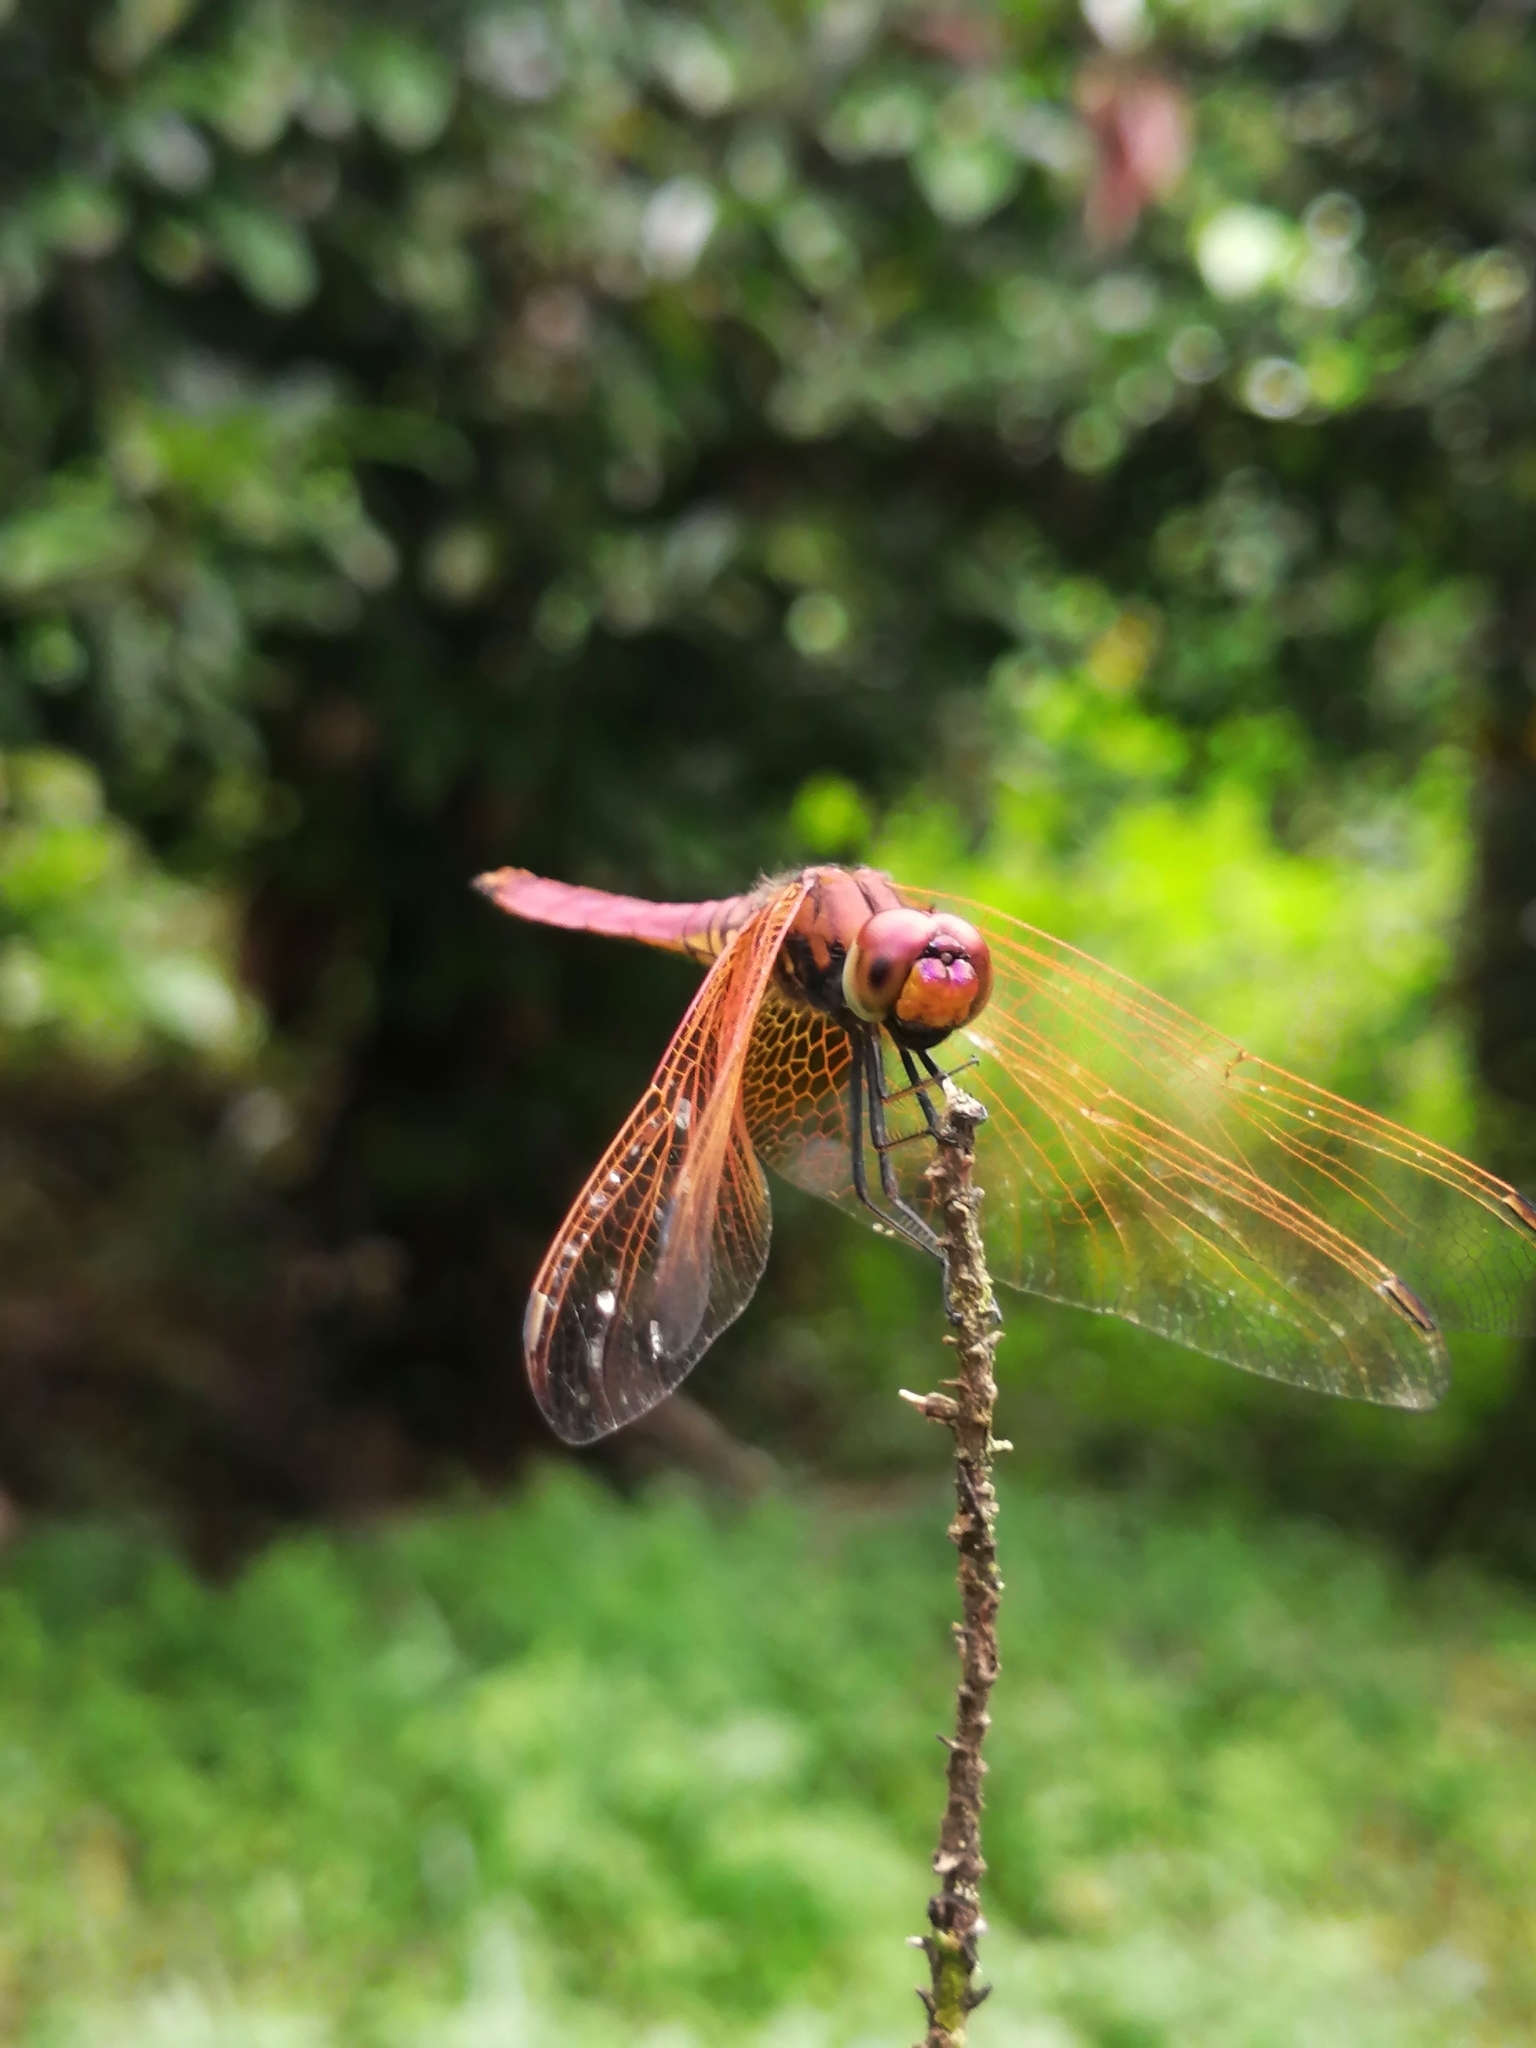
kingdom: Animalia
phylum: Arthropoda
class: Insecta
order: Odonata
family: Libellulidae
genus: Trithemis
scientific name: Trithemis aurora
